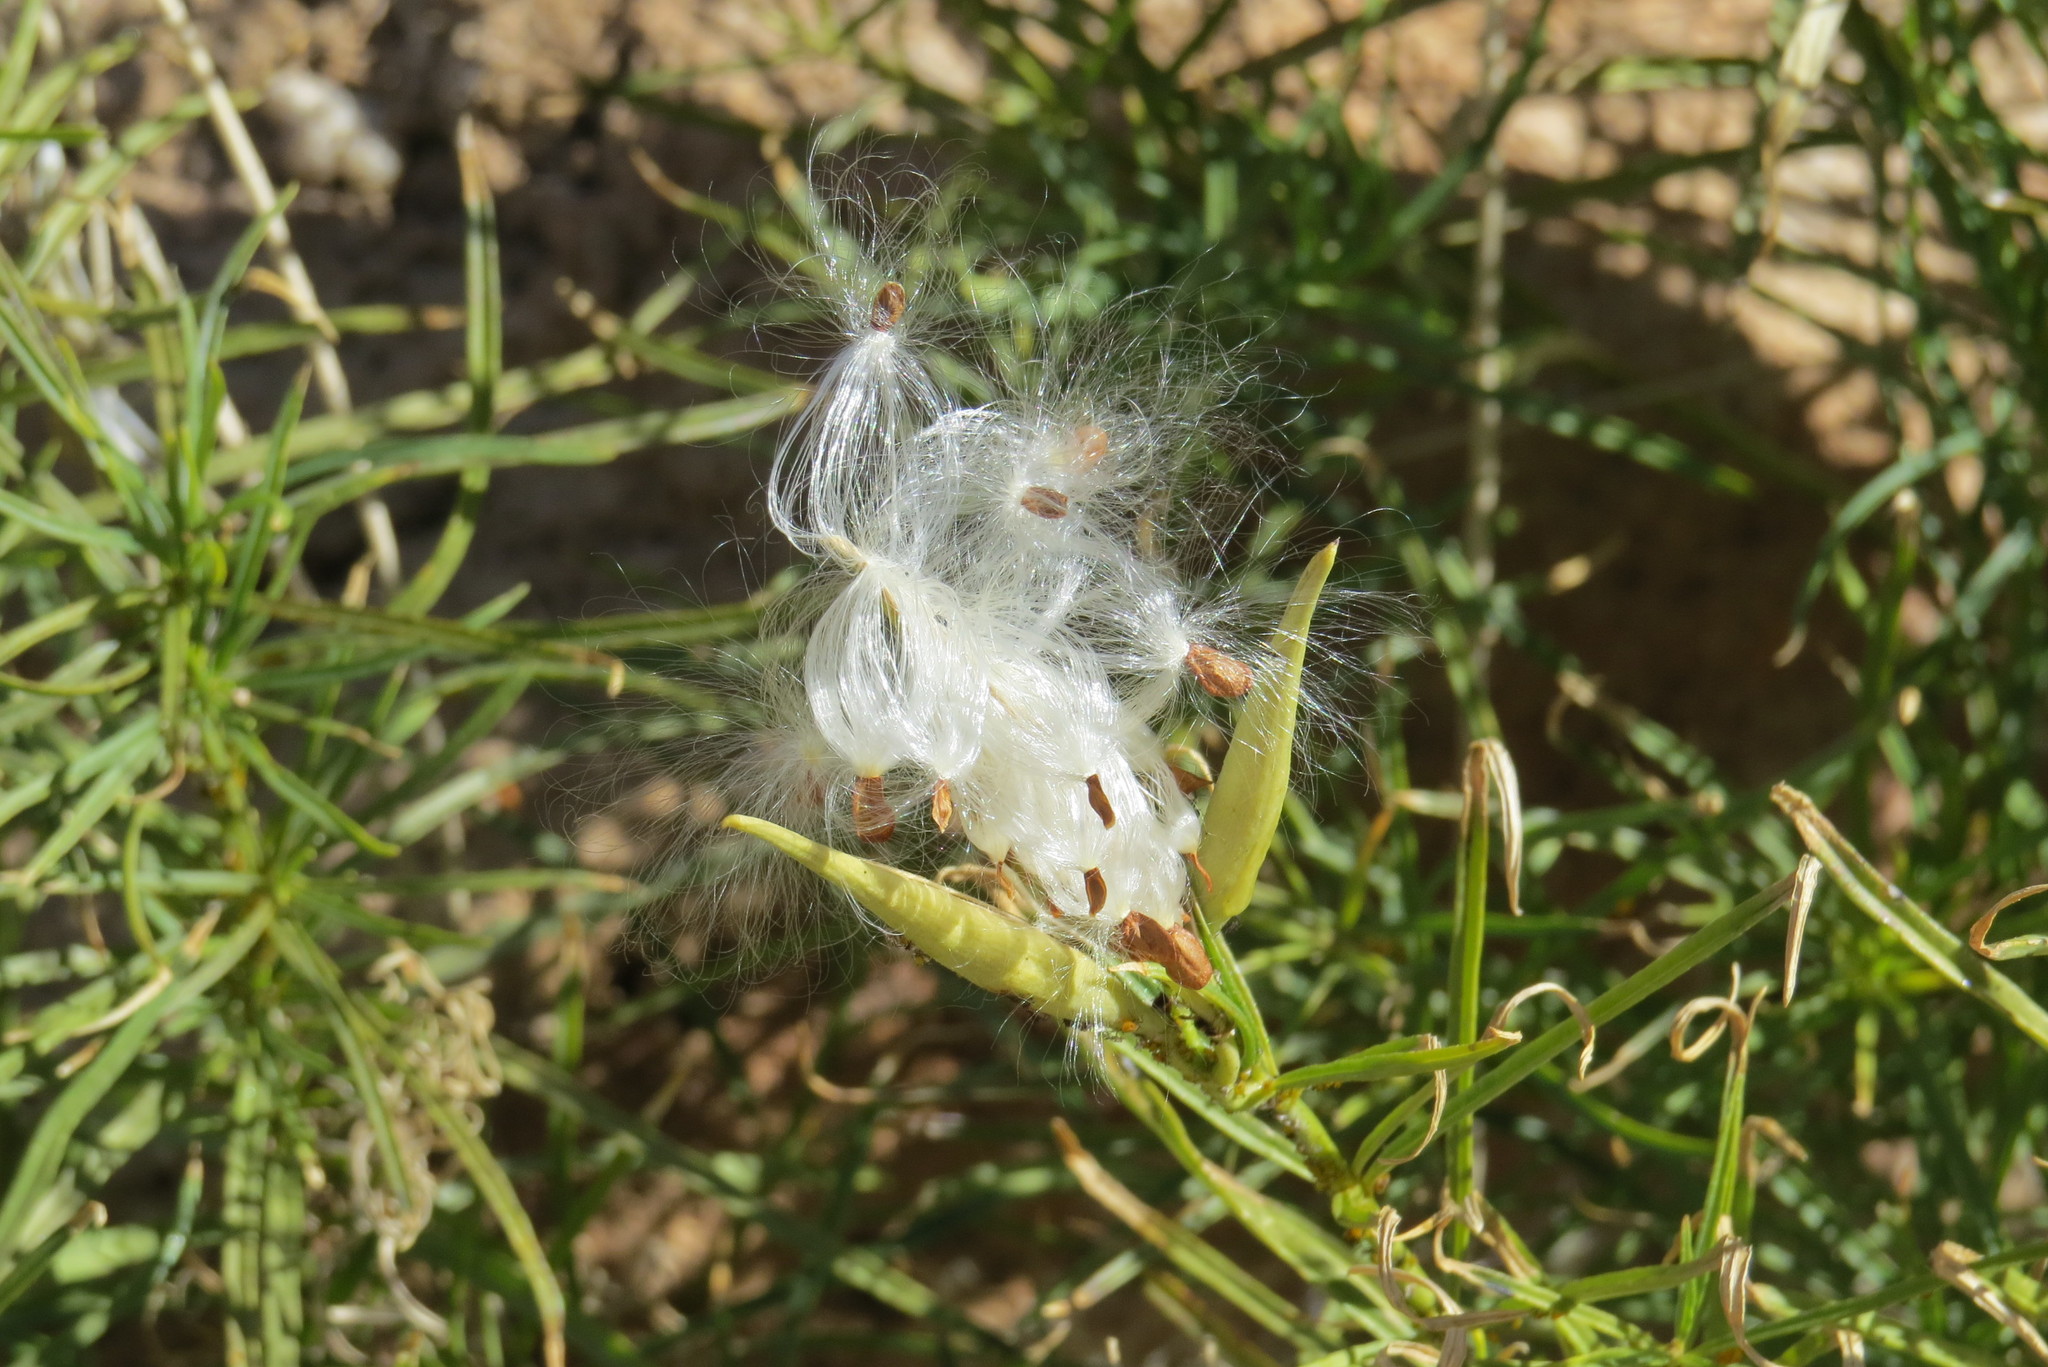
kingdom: Plantae
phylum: Tracheophyta
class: Magnoliopsida
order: Gentianales
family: Apocynaceae
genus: Asclepias
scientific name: Asclepias subverticillata
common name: Horsetail milkweed
